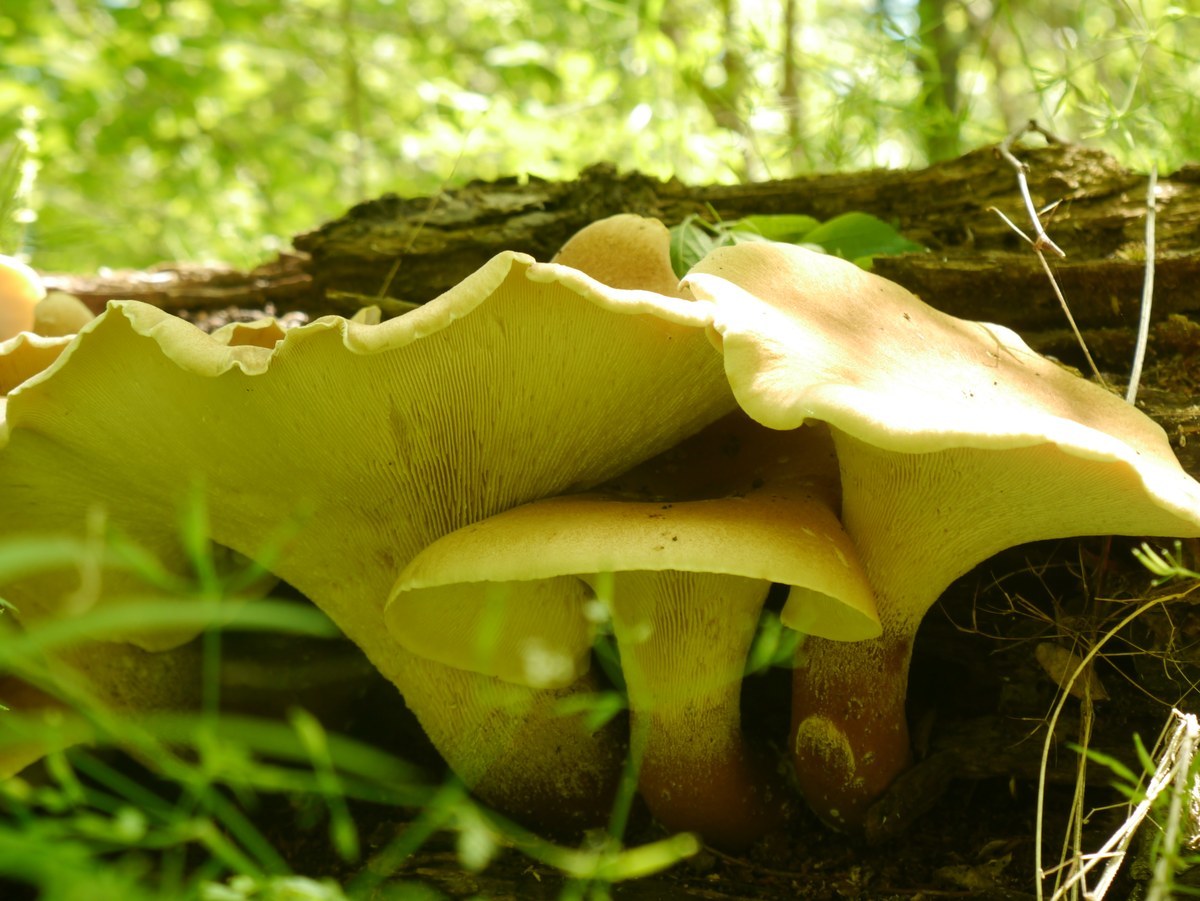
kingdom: Fungi
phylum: Basidiomycota
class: Agaricomycetes
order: Gloeophyllales
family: Gloeophyllaceae
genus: Neolentinus
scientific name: Neolentinus cyathiformis
